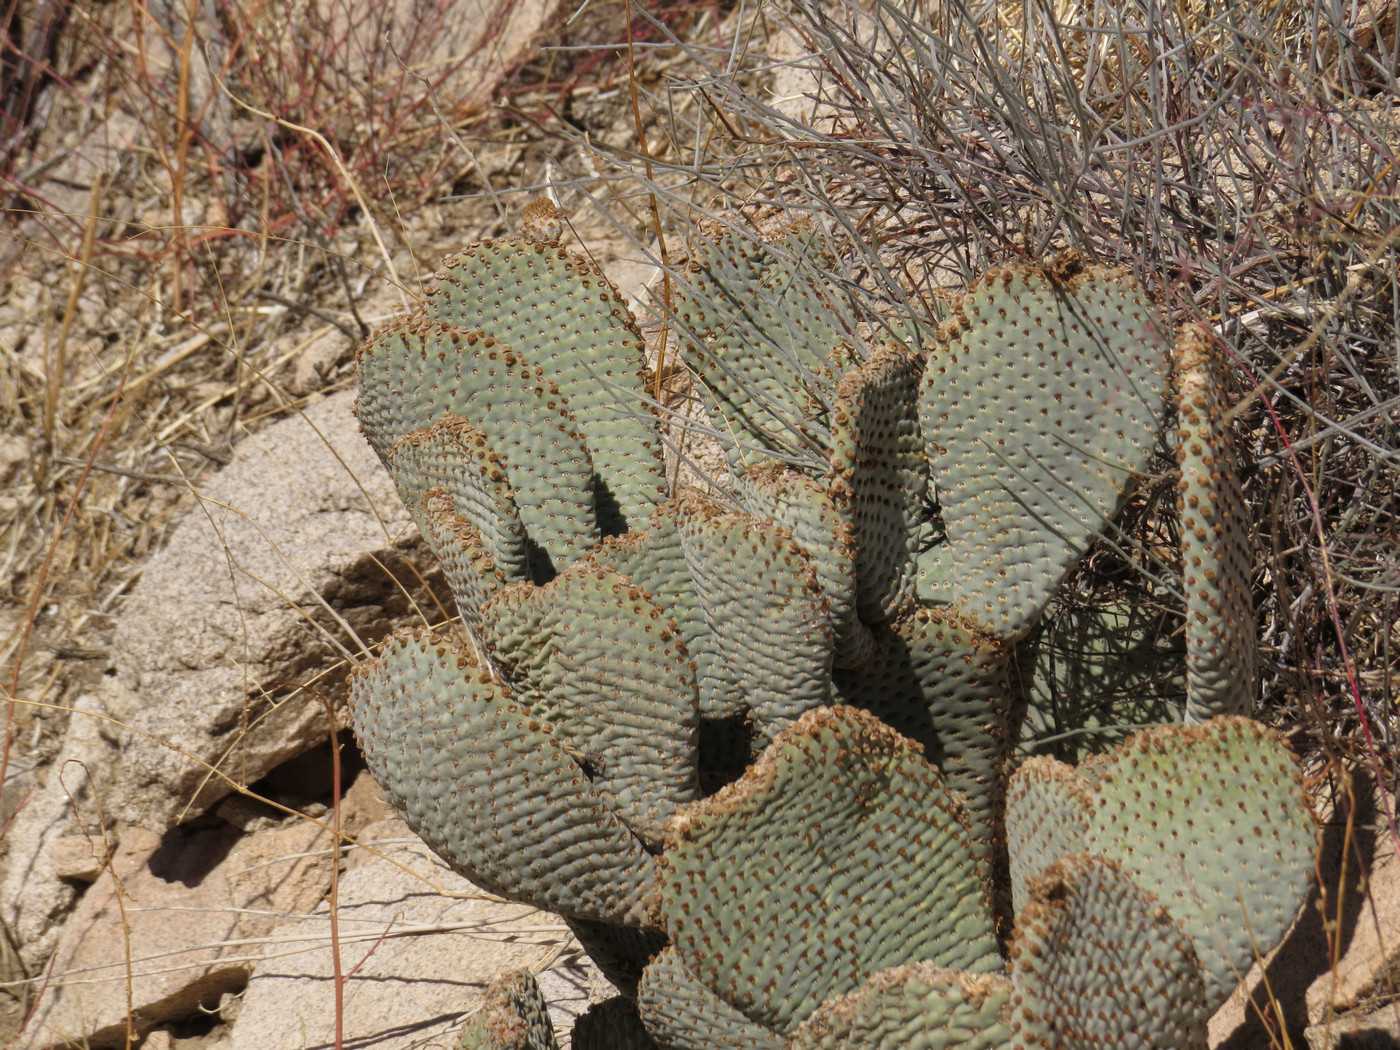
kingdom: Plantae
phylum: Tracheophyta
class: Magnoliopsida
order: Caryophyllales
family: Cactaceae
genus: Opuntia
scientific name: Opuntia basilaris
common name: Beavertail prickly-pear
